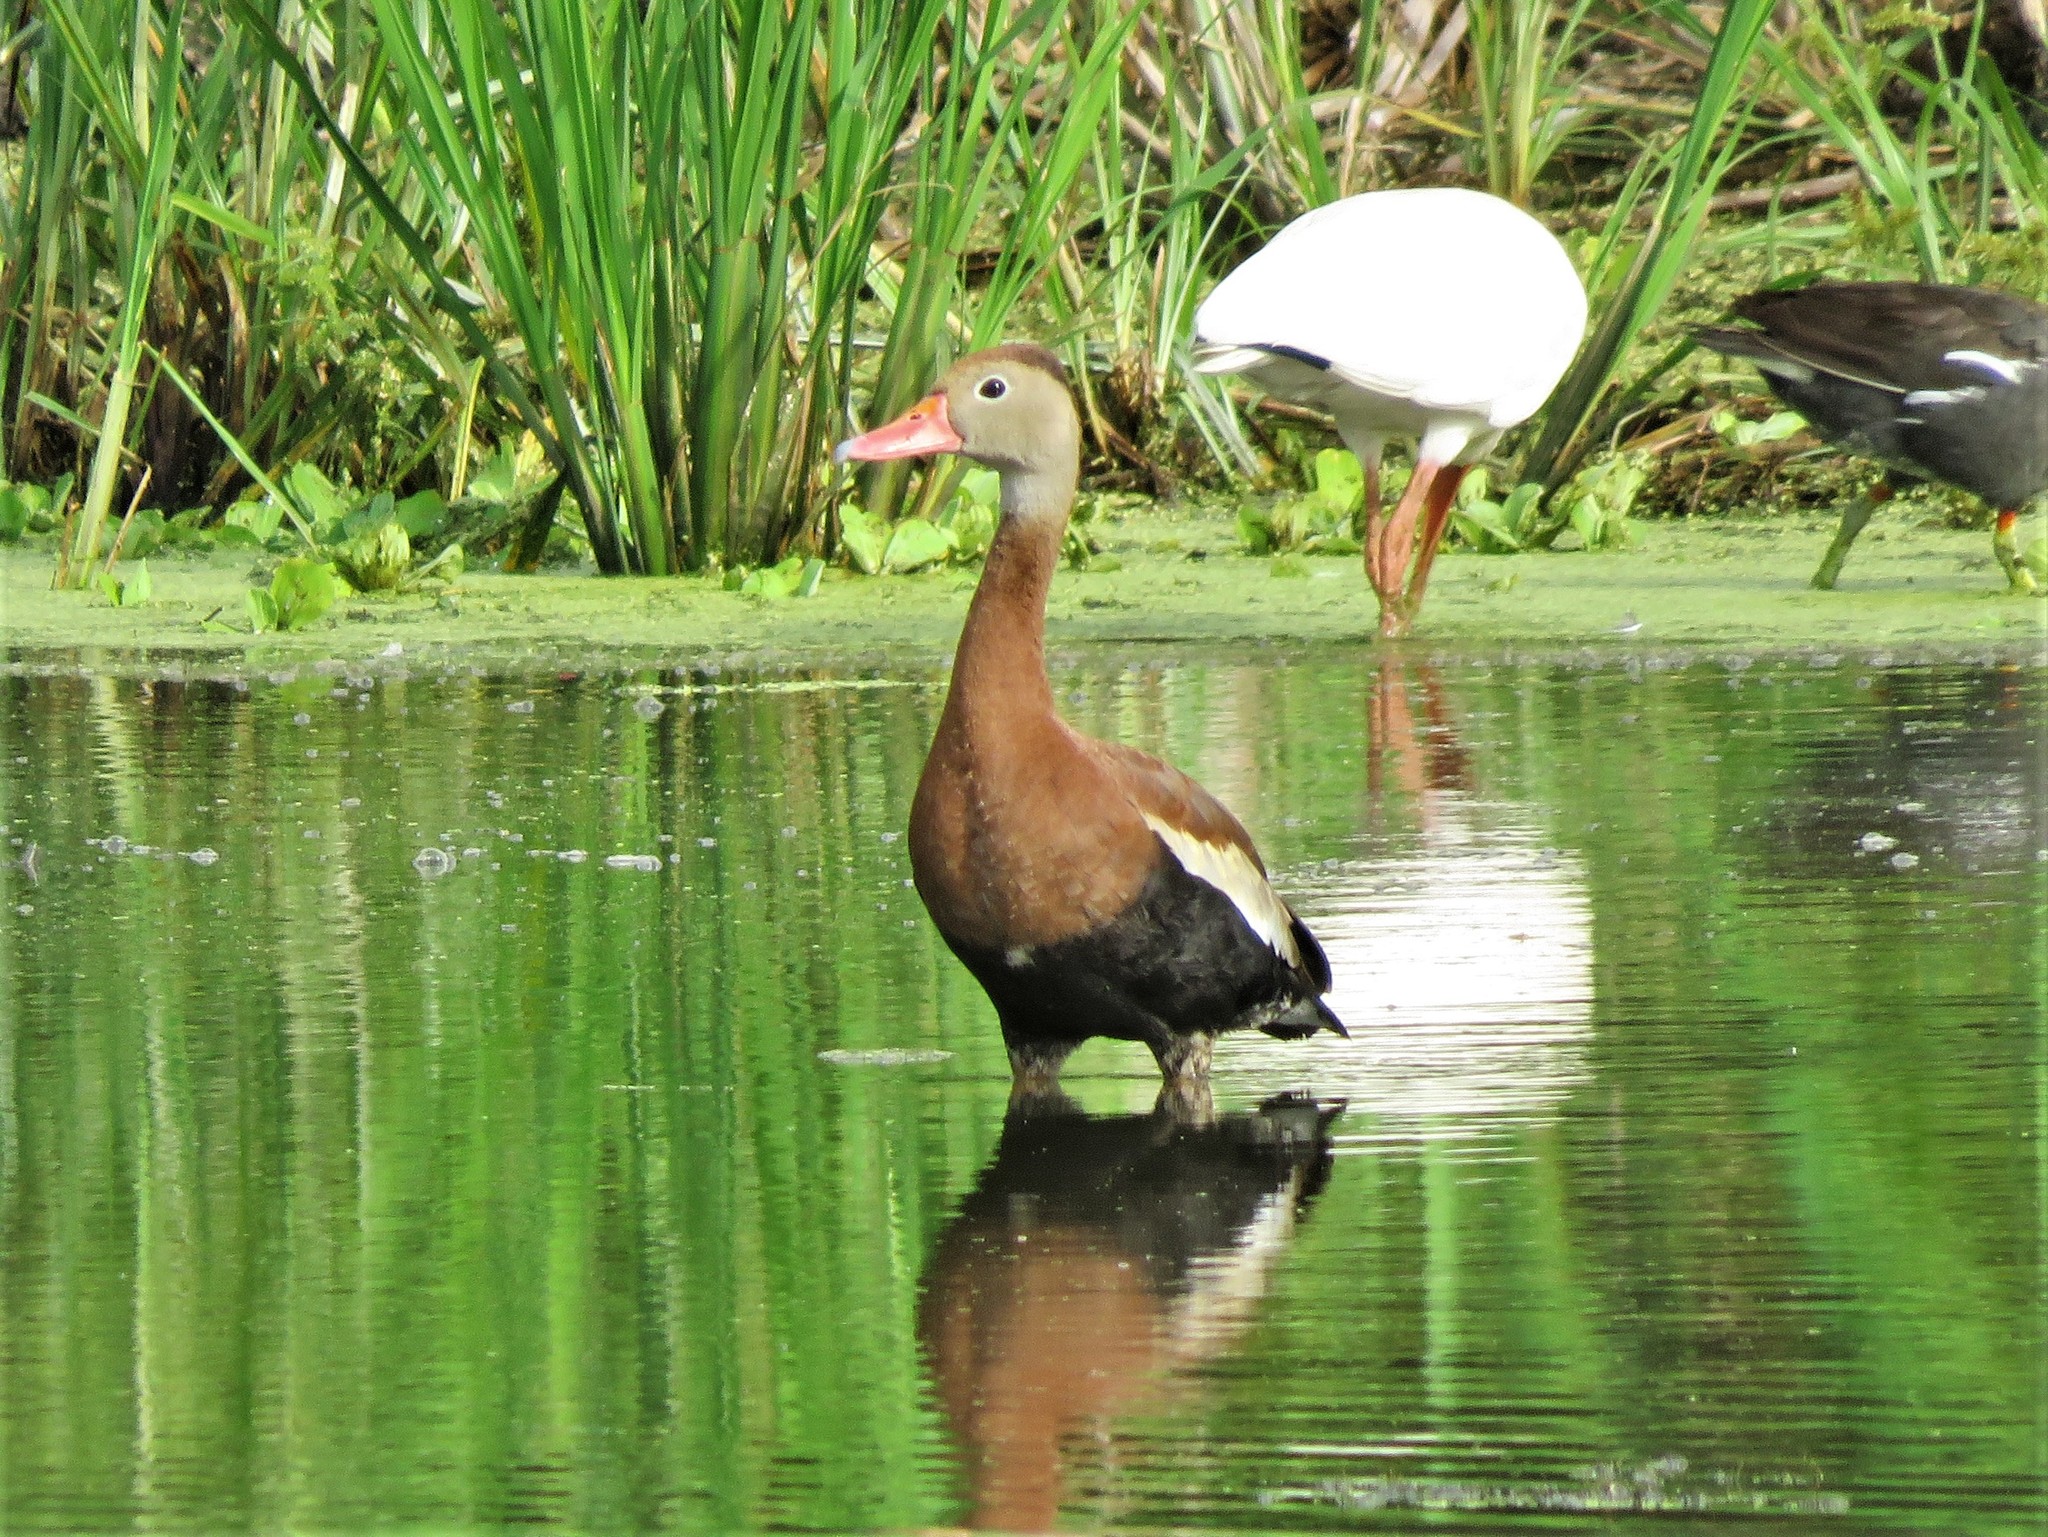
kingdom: Animalia
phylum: Chordata
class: Aves
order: Anseriformes
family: Anatidae
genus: Dendrocygna
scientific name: Dendrocygna autumnalis
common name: Black-bellied whistling duck
